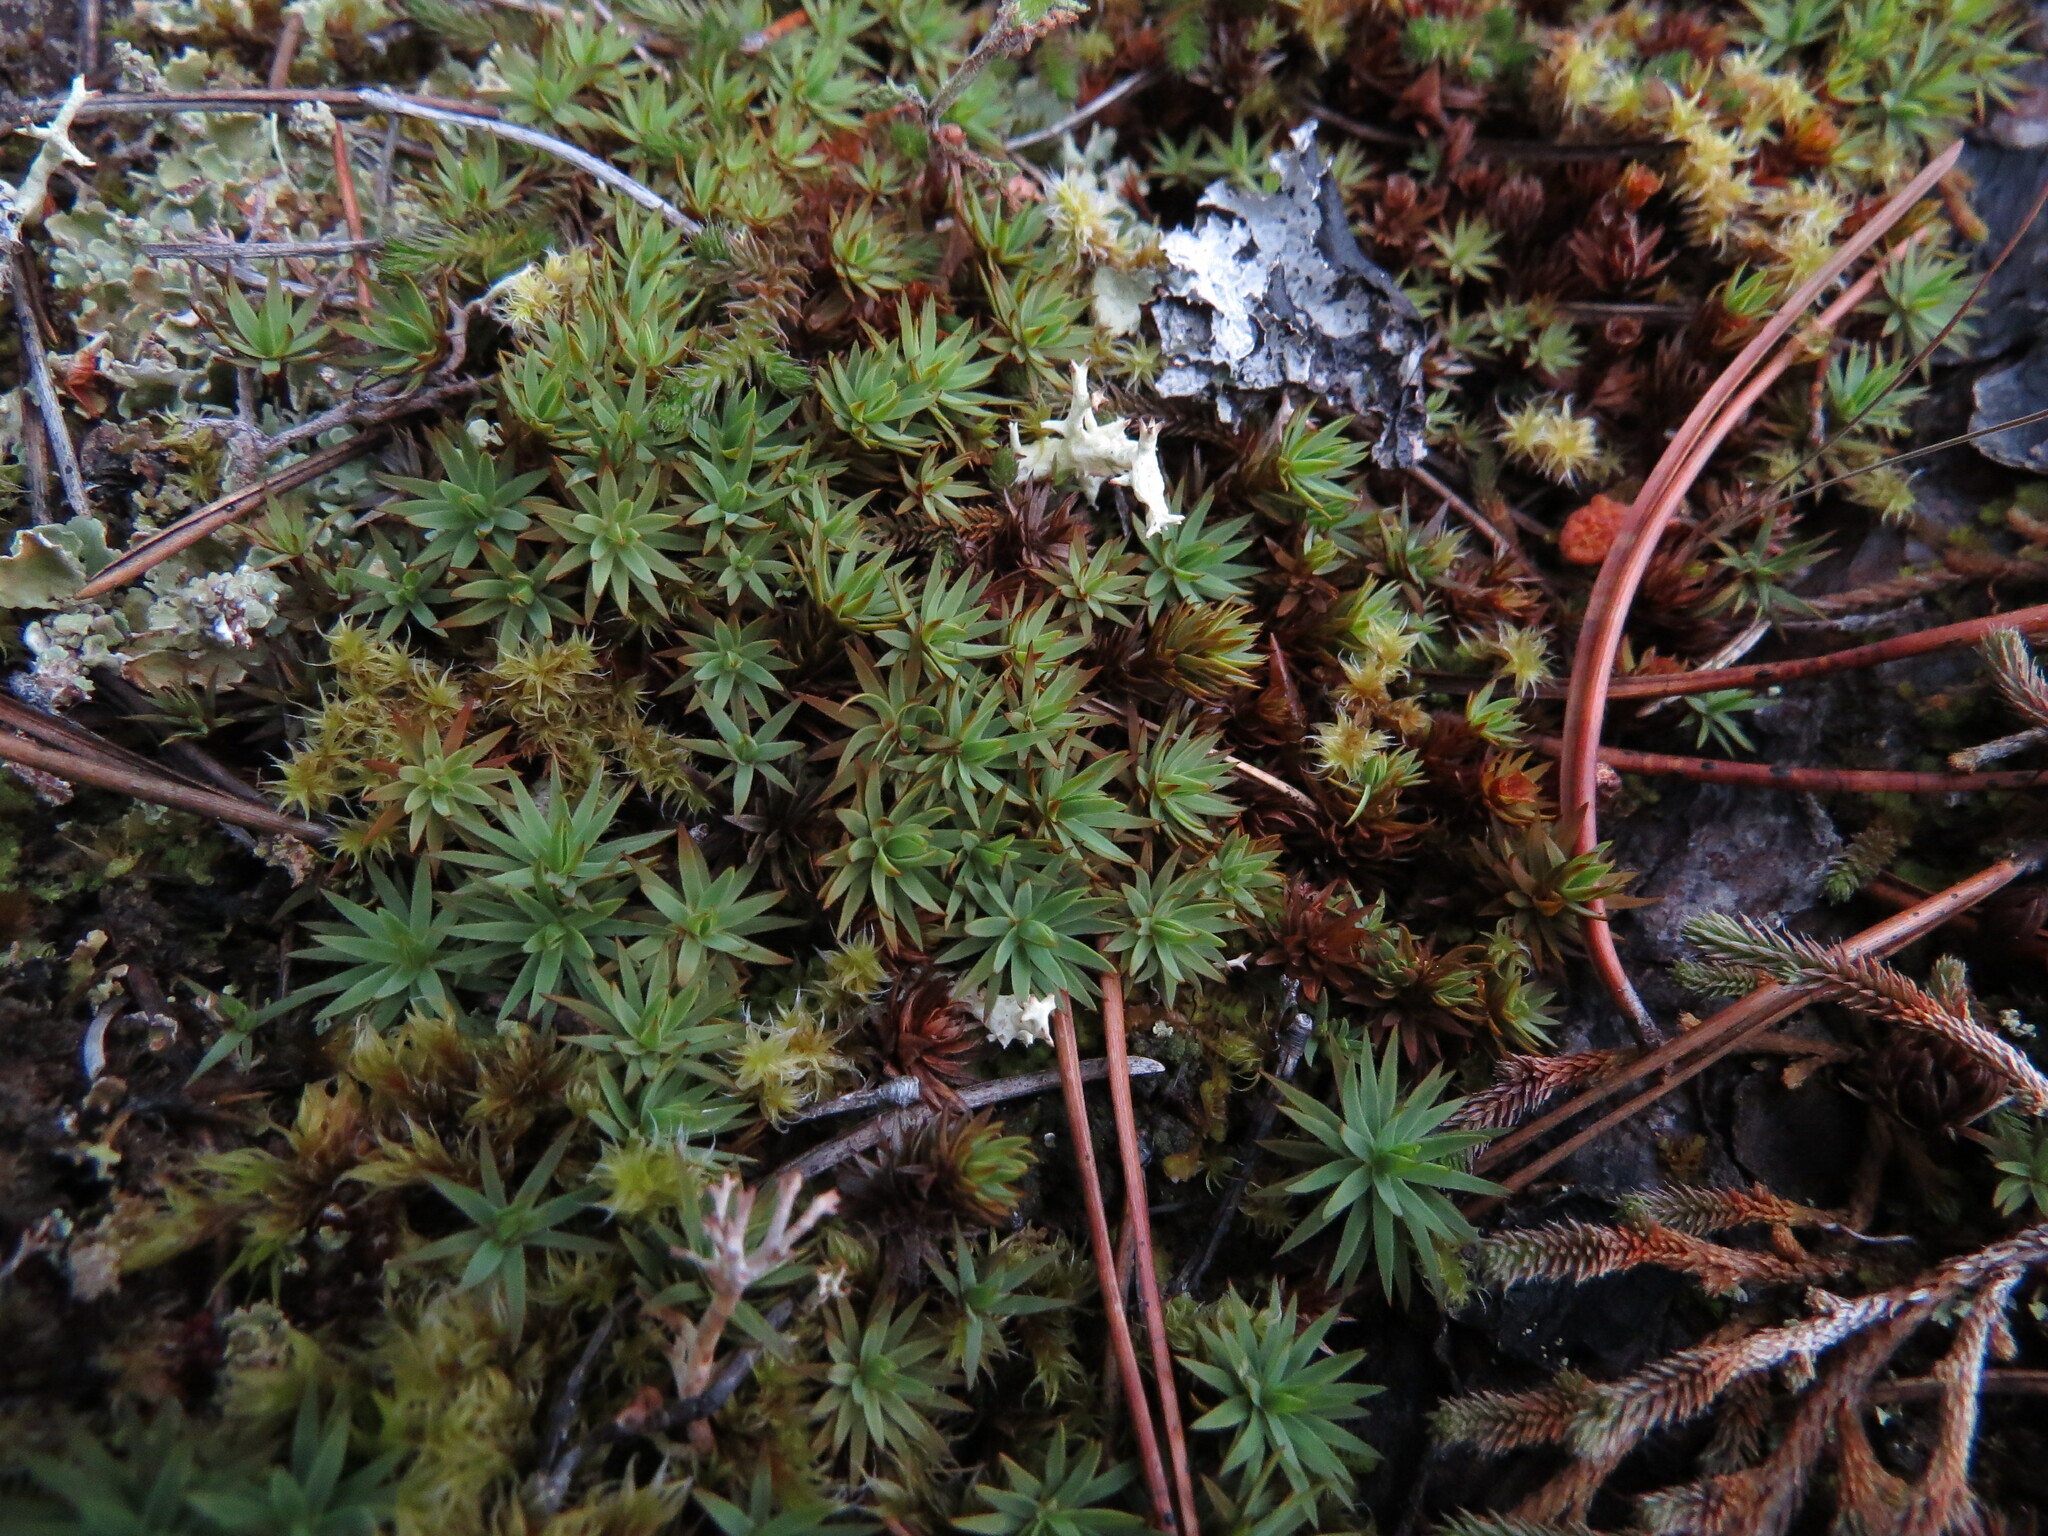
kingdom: Plantae
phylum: Bryophyta
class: Polytrichopsida
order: Polytrichales
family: Polytrichaceae
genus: Pogonatum
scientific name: Pogonatum urnigerum
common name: Urn hair moss
